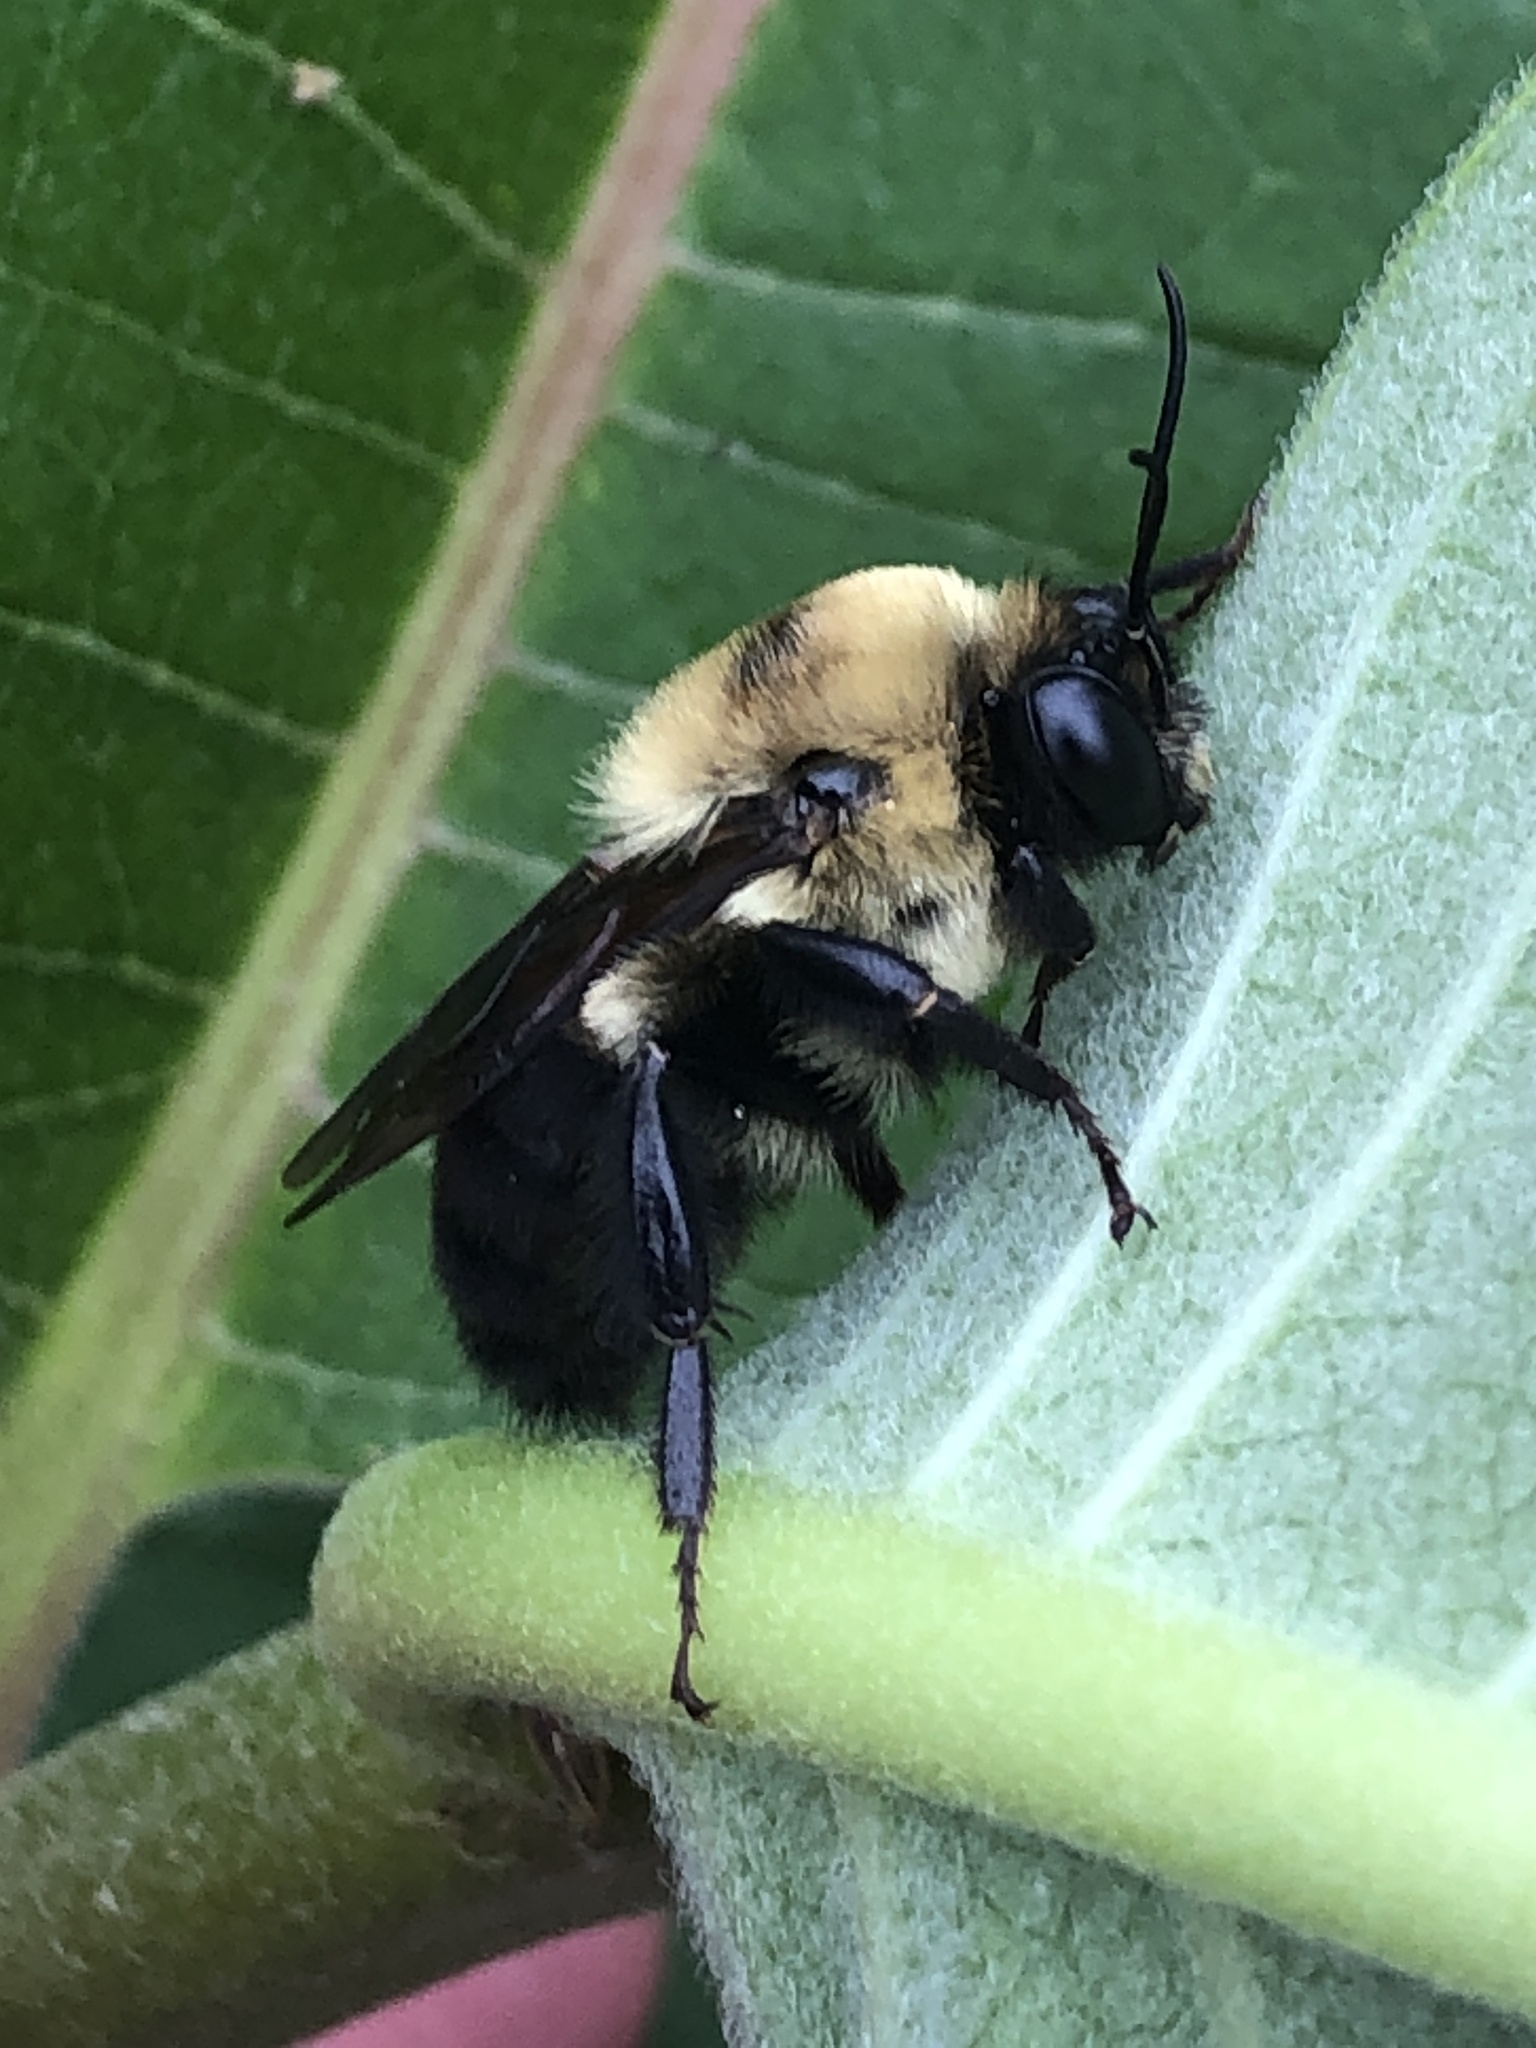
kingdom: Animalia
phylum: Arthropoda
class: Insecta
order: Hymenoptera
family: Apidae
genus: Bombus
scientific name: Bombus griseocollis
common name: Brown-belted bumble bee
